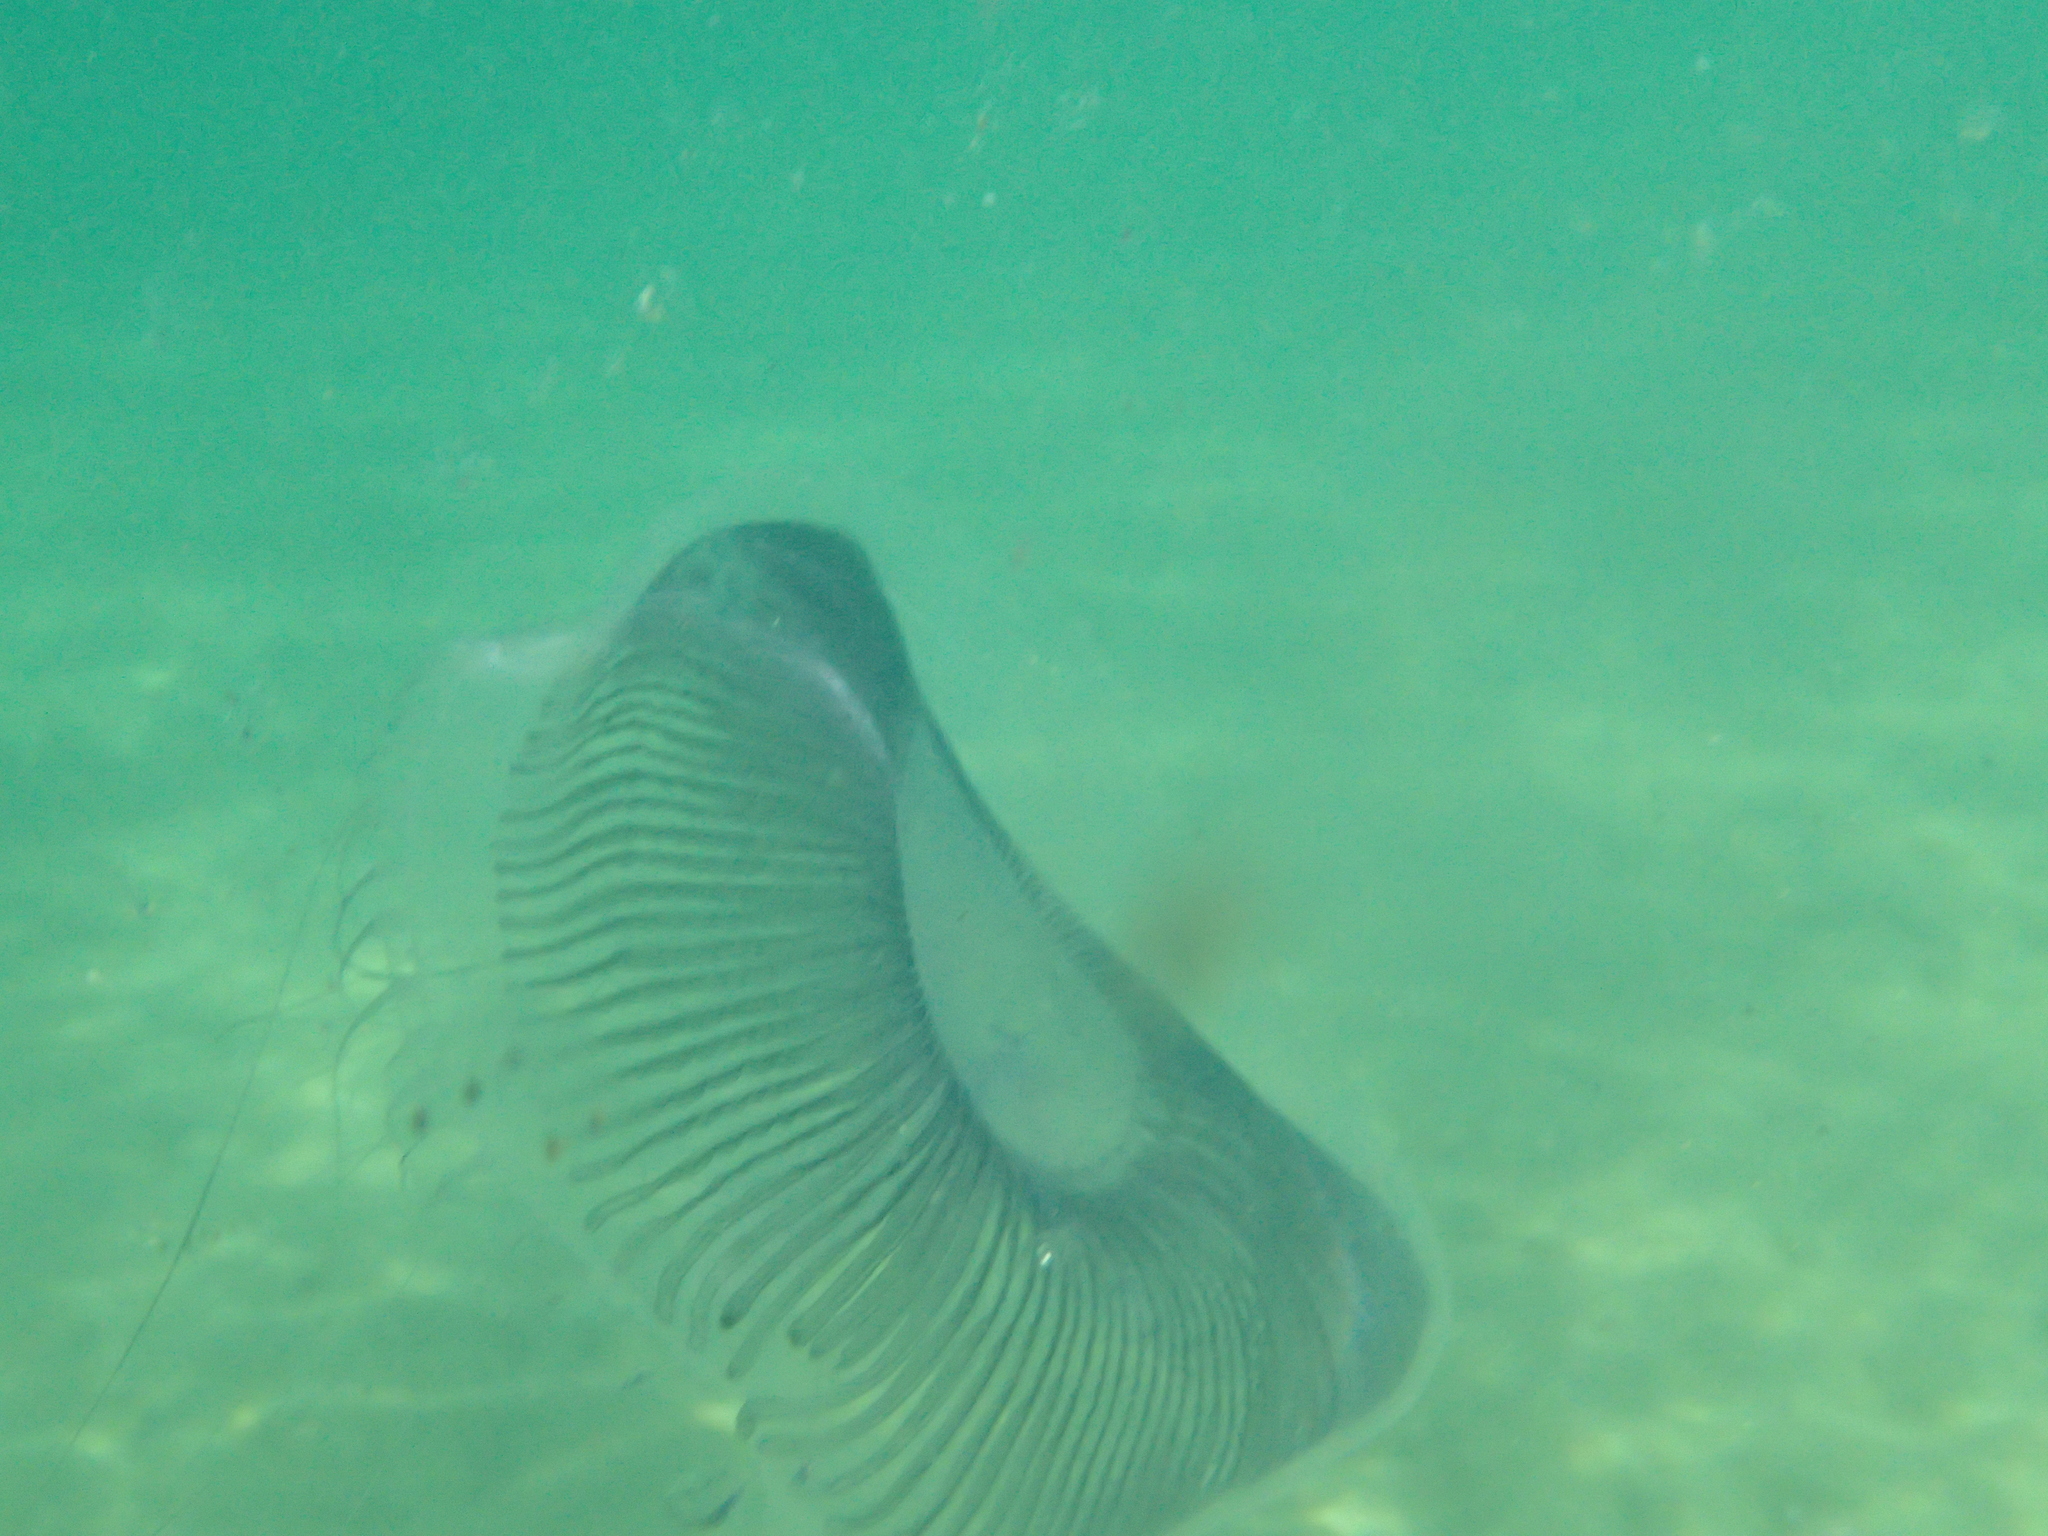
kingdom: Animalia
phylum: Cnidaria
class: Hydrozoa
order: Leptothecata
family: Aequoreidae
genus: Aequorea
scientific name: Aequorea forskalea
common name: Many-ribbed jellyfish
